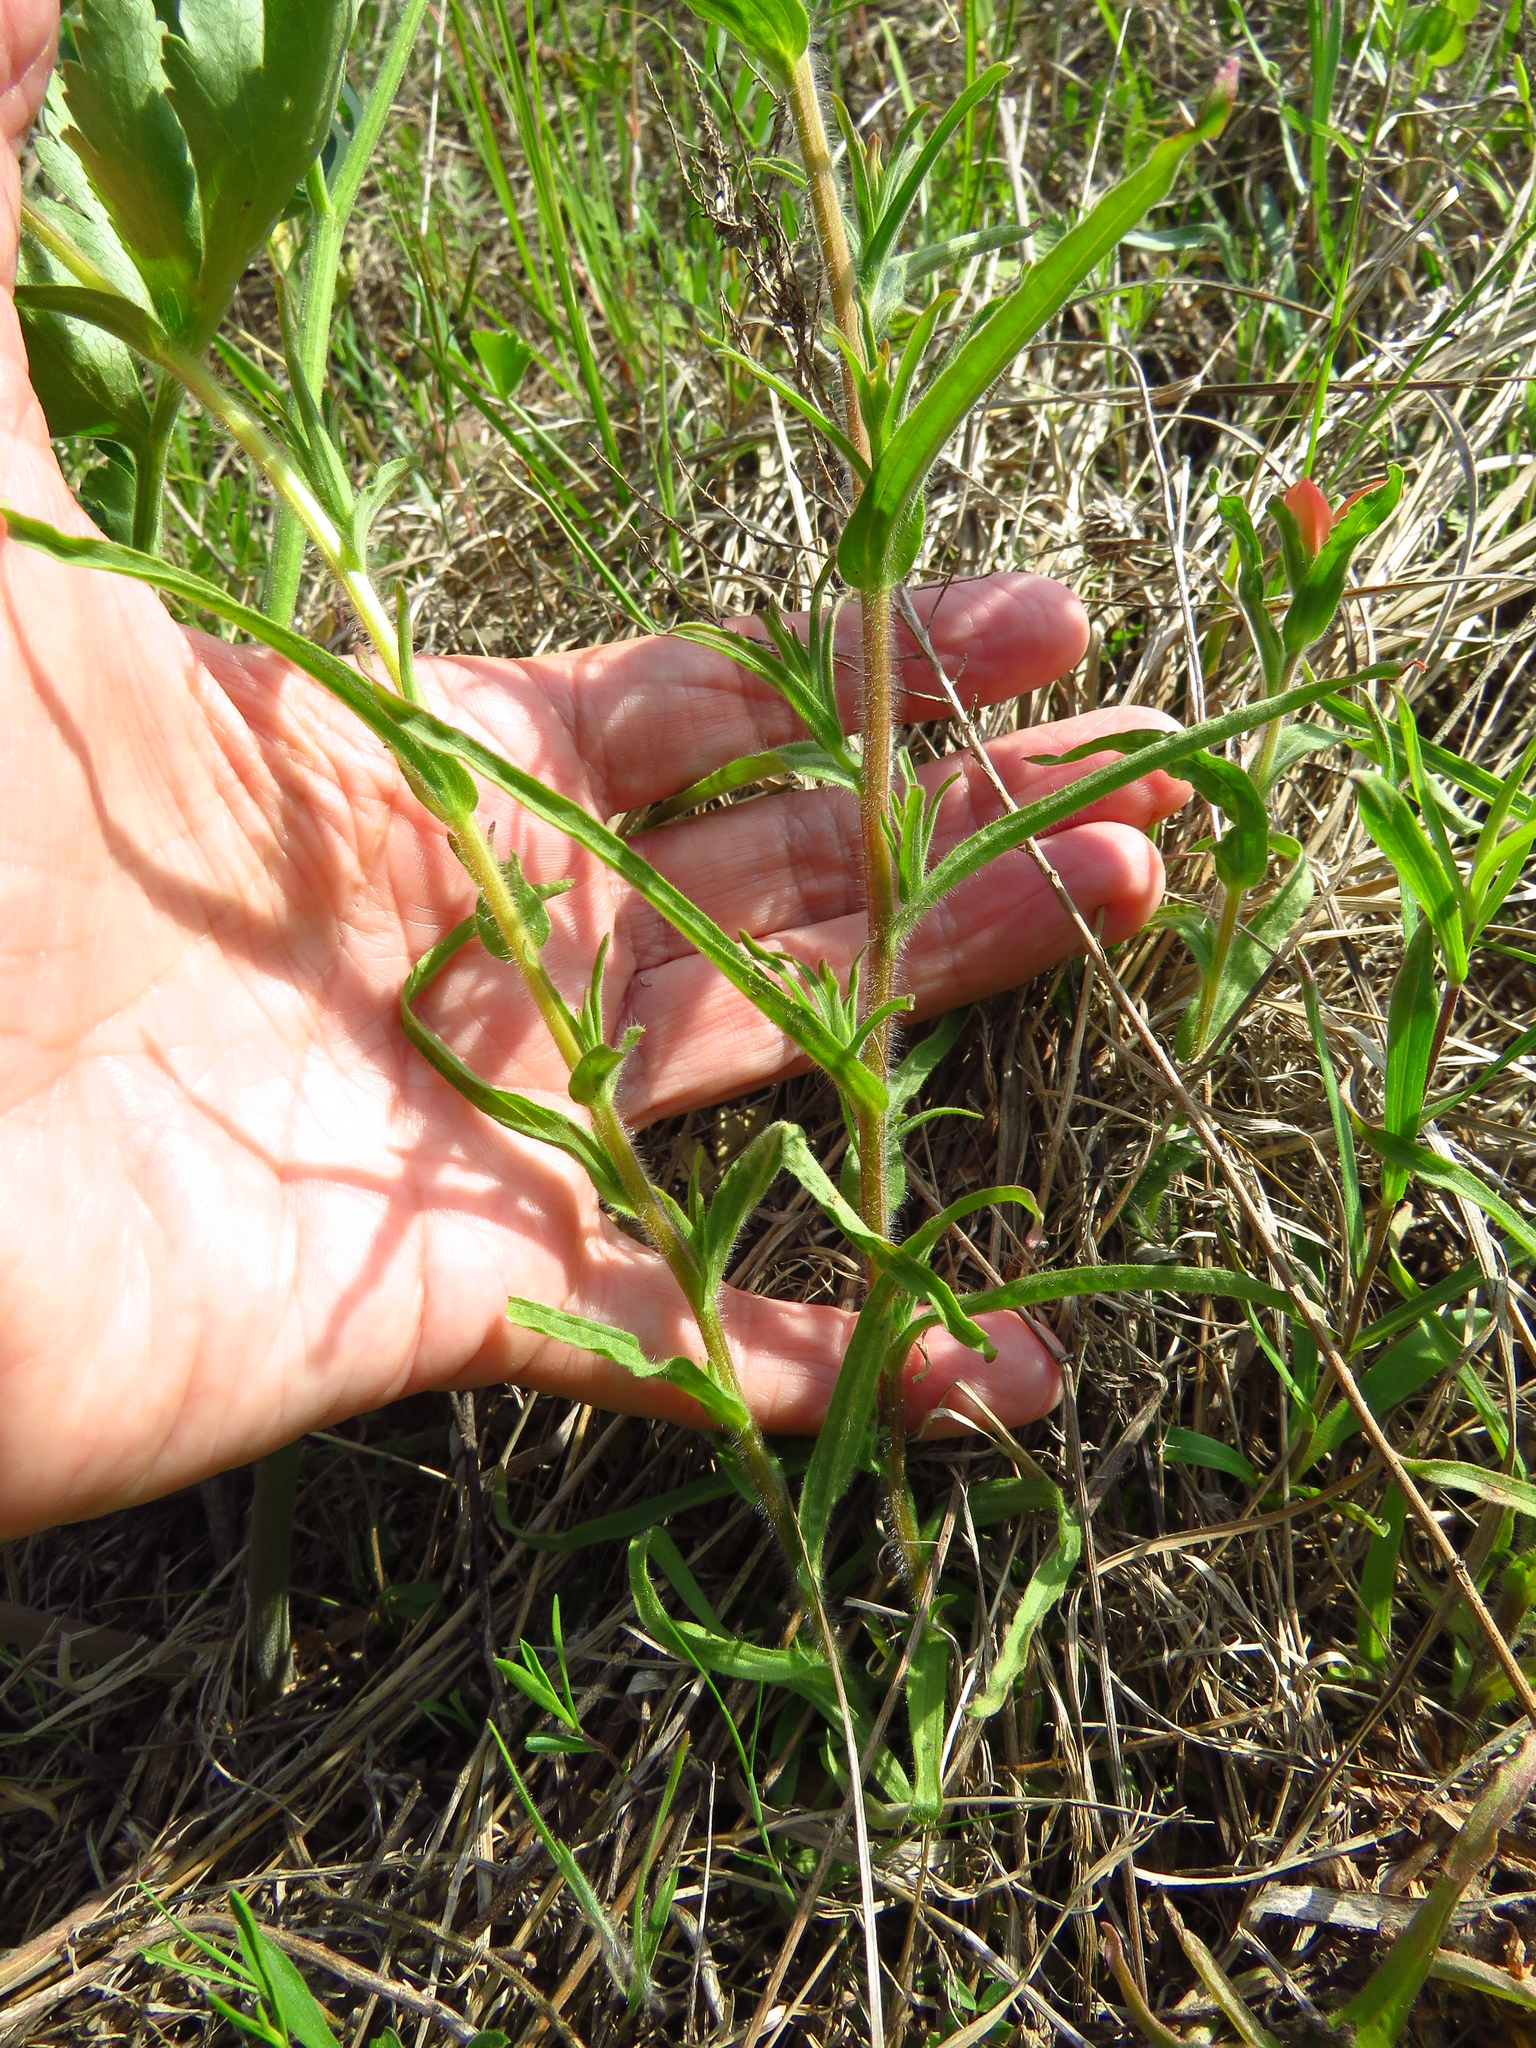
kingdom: Plantae
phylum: Tracheophyta
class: Magnoliopsida
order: Lamiales
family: Orobanchaceae
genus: Castilleja
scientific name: Castilleja indivisa
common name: Texas paintbrush
